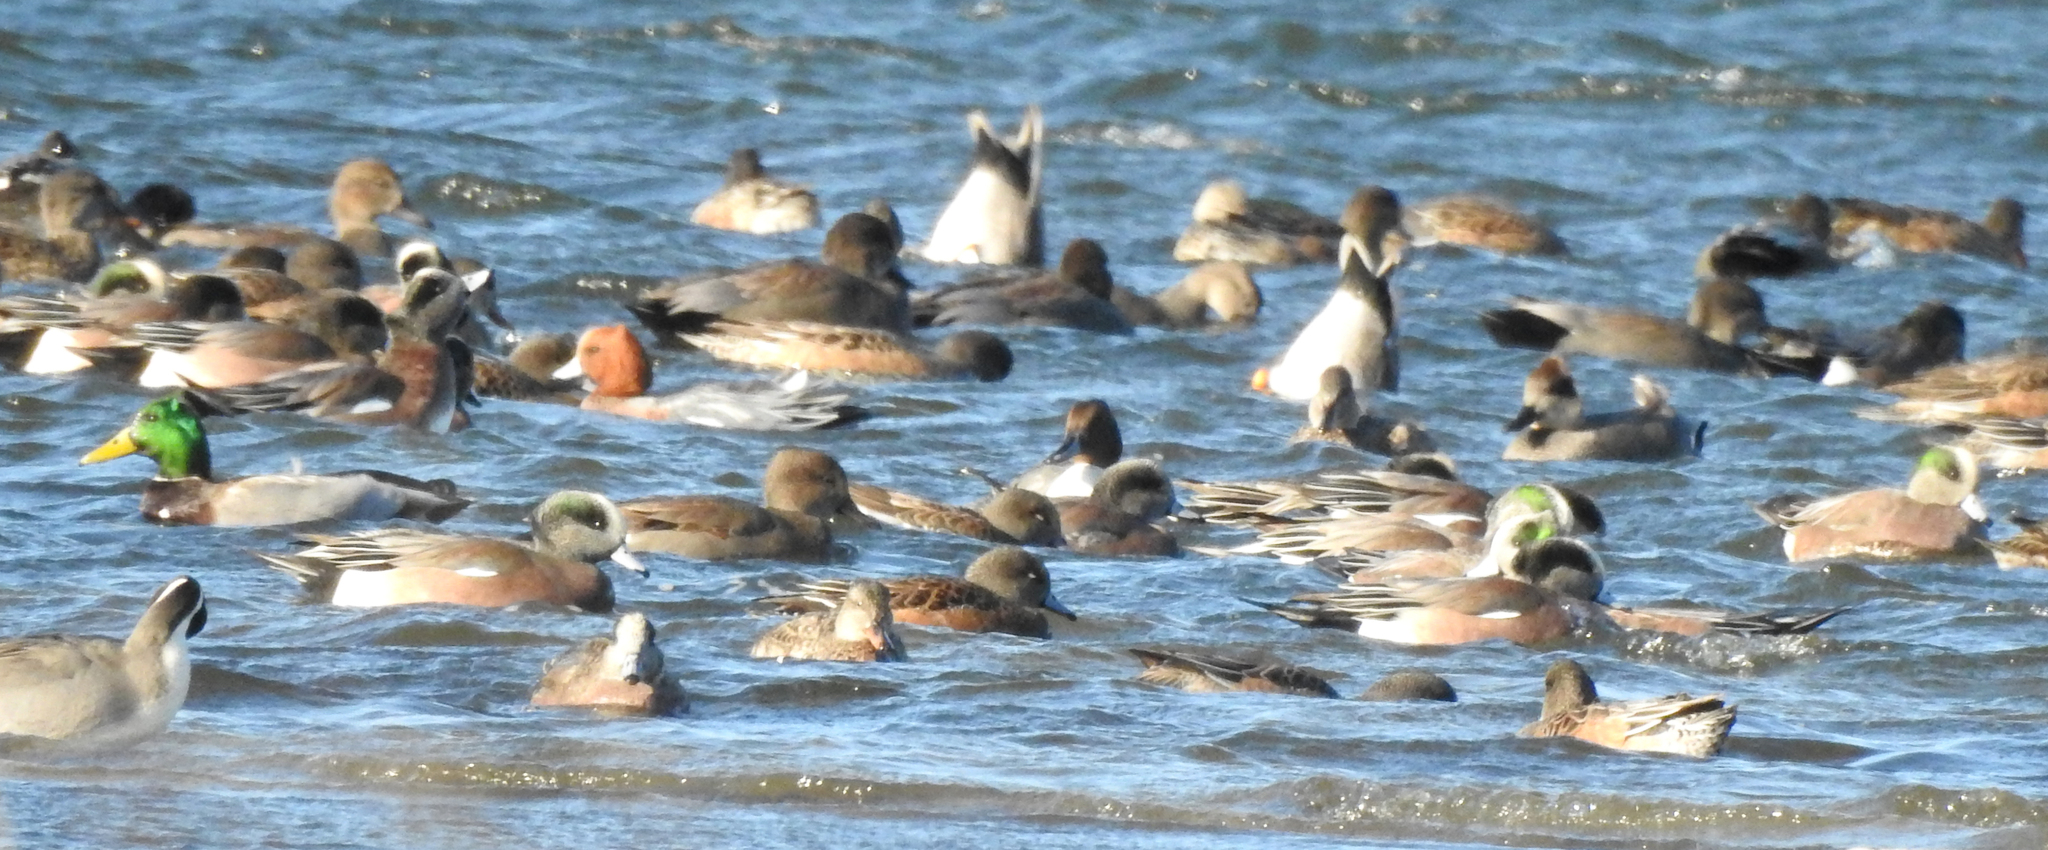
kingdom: Animalia
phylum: Chordata
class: Aves
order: Anseriformes
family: Anatidae
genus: Mareca
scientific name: Mareca penelope
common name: Eurasian wigeon
